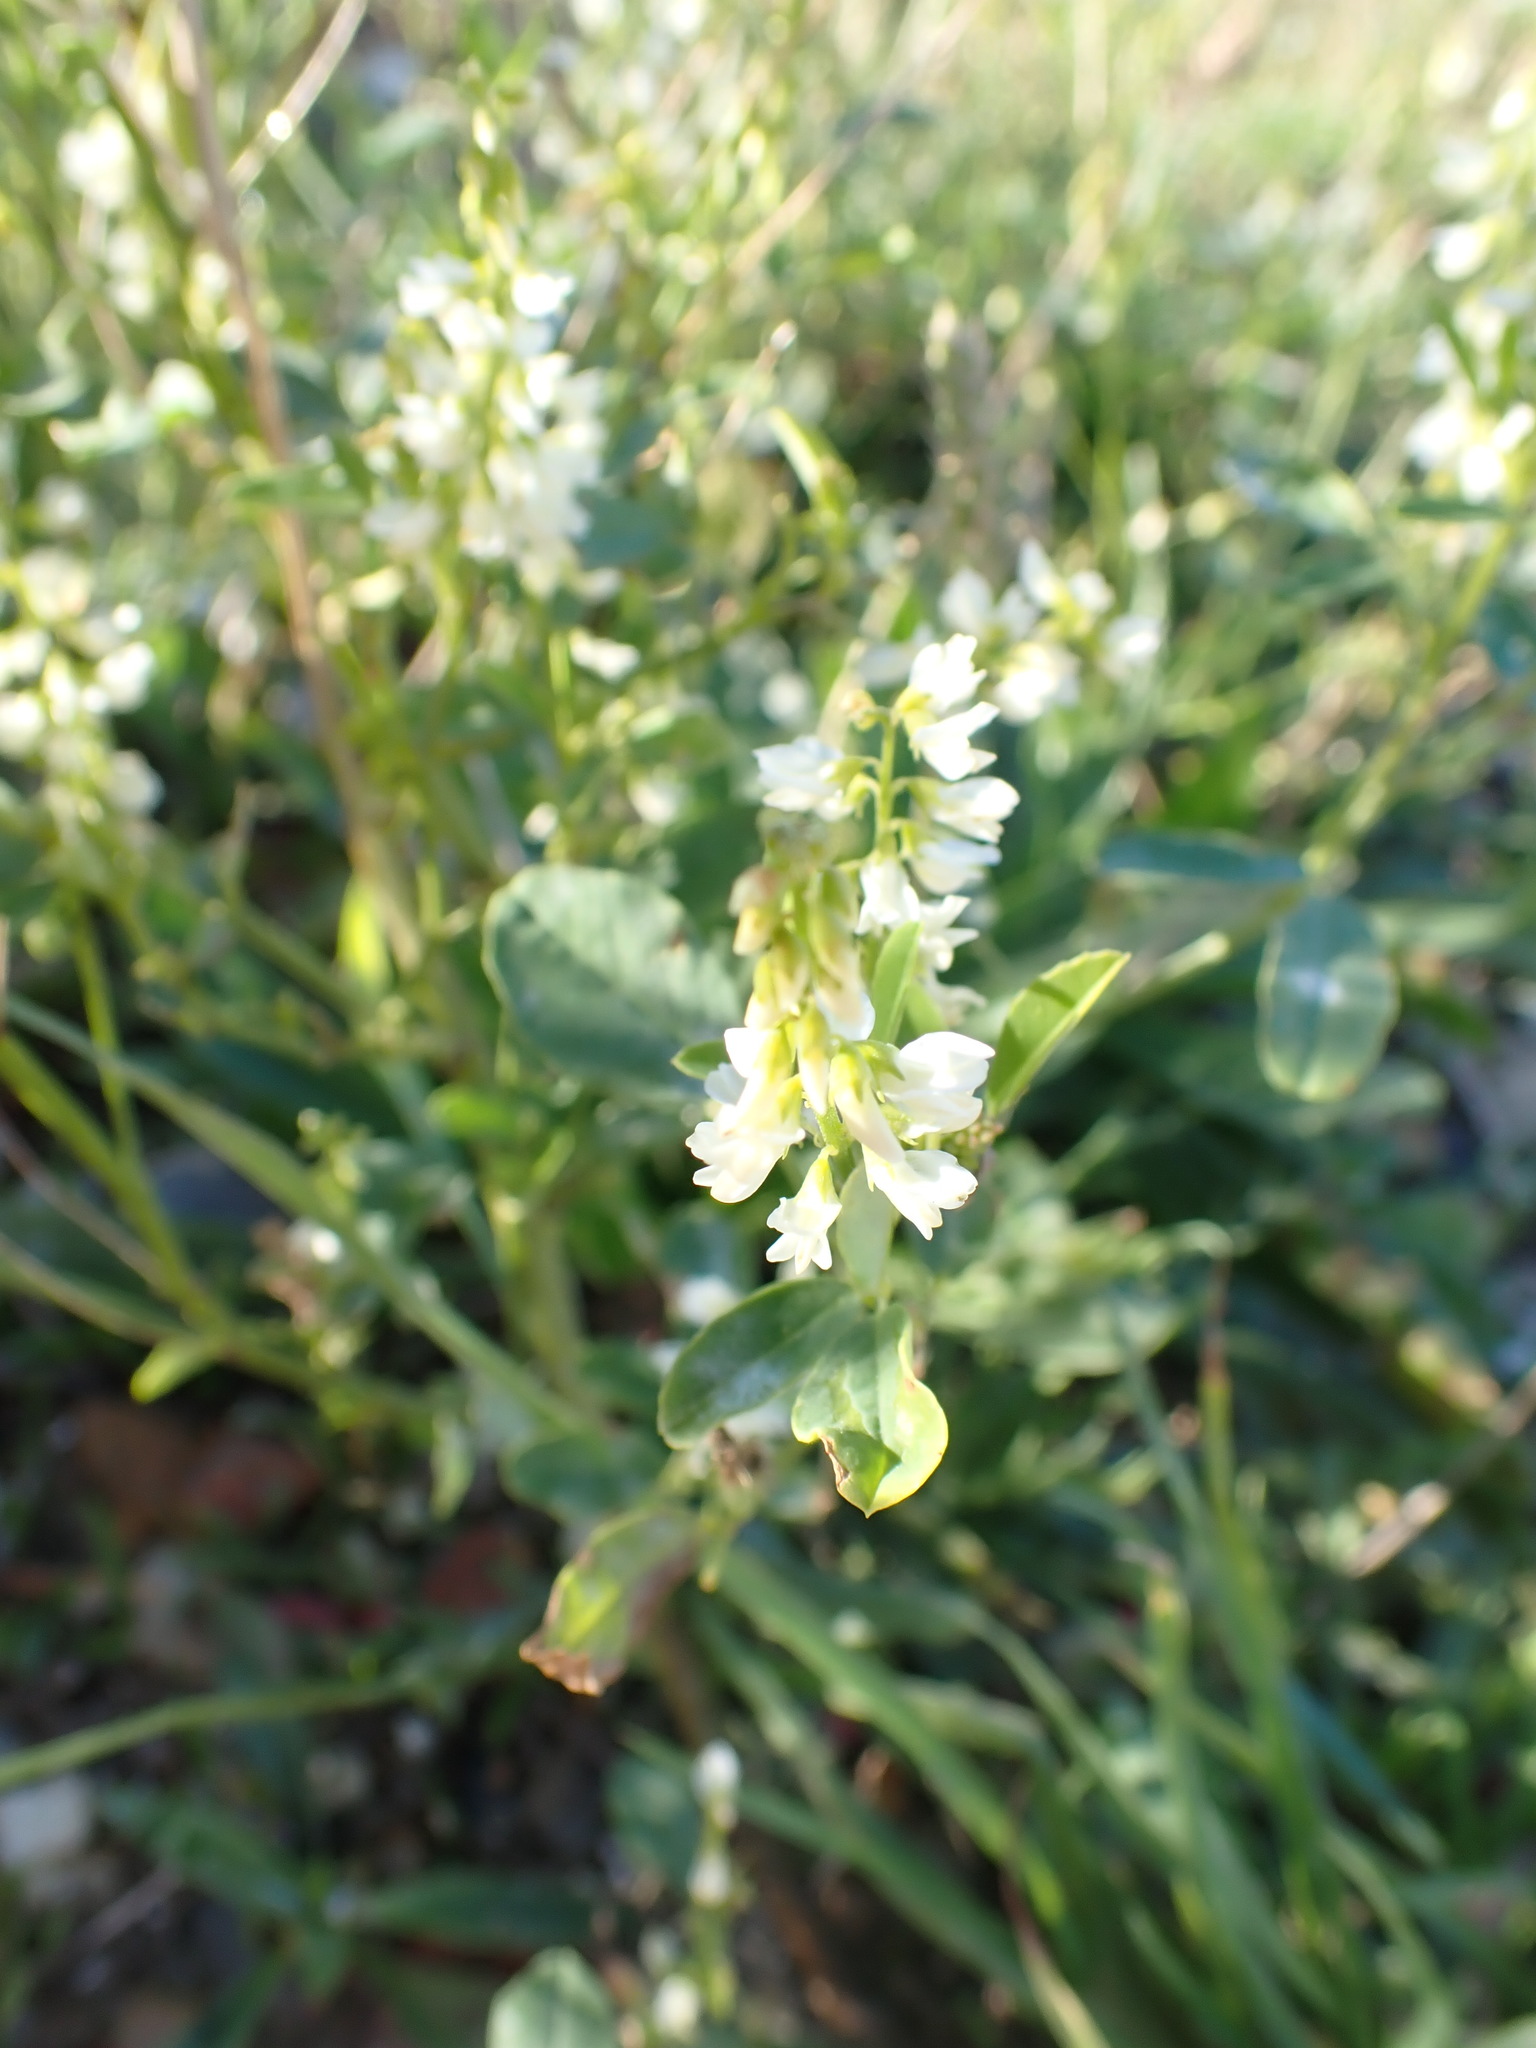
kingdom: Plantae
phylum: Tracheophyta
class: Magnoliopsida
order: Fabales
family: Fabaceae
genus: Melilotus
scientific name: Melilotus albus
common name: White melilot
